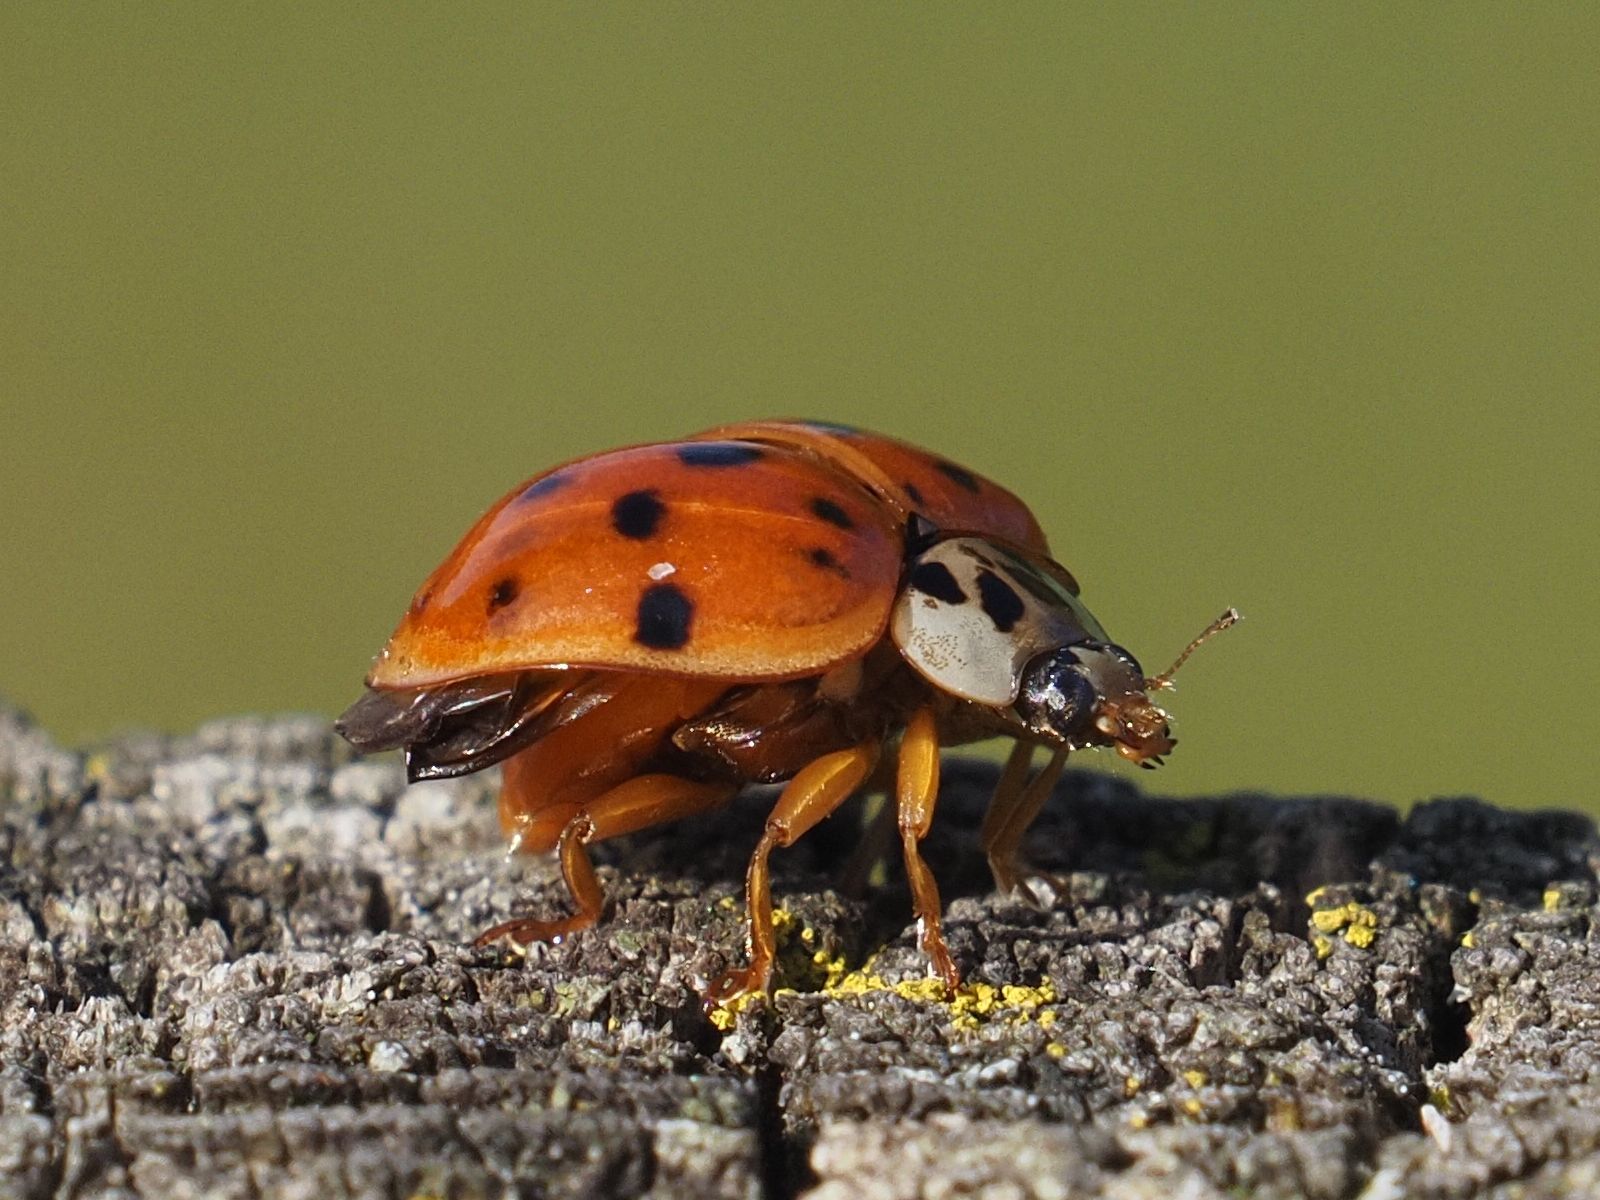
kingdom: Animalia
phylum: Arthropoda
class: Insecta
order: Coleoptera
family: Coccinellidae
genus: Harmonia
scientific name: Harmonia axyridis
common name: Harlequin ladybird
